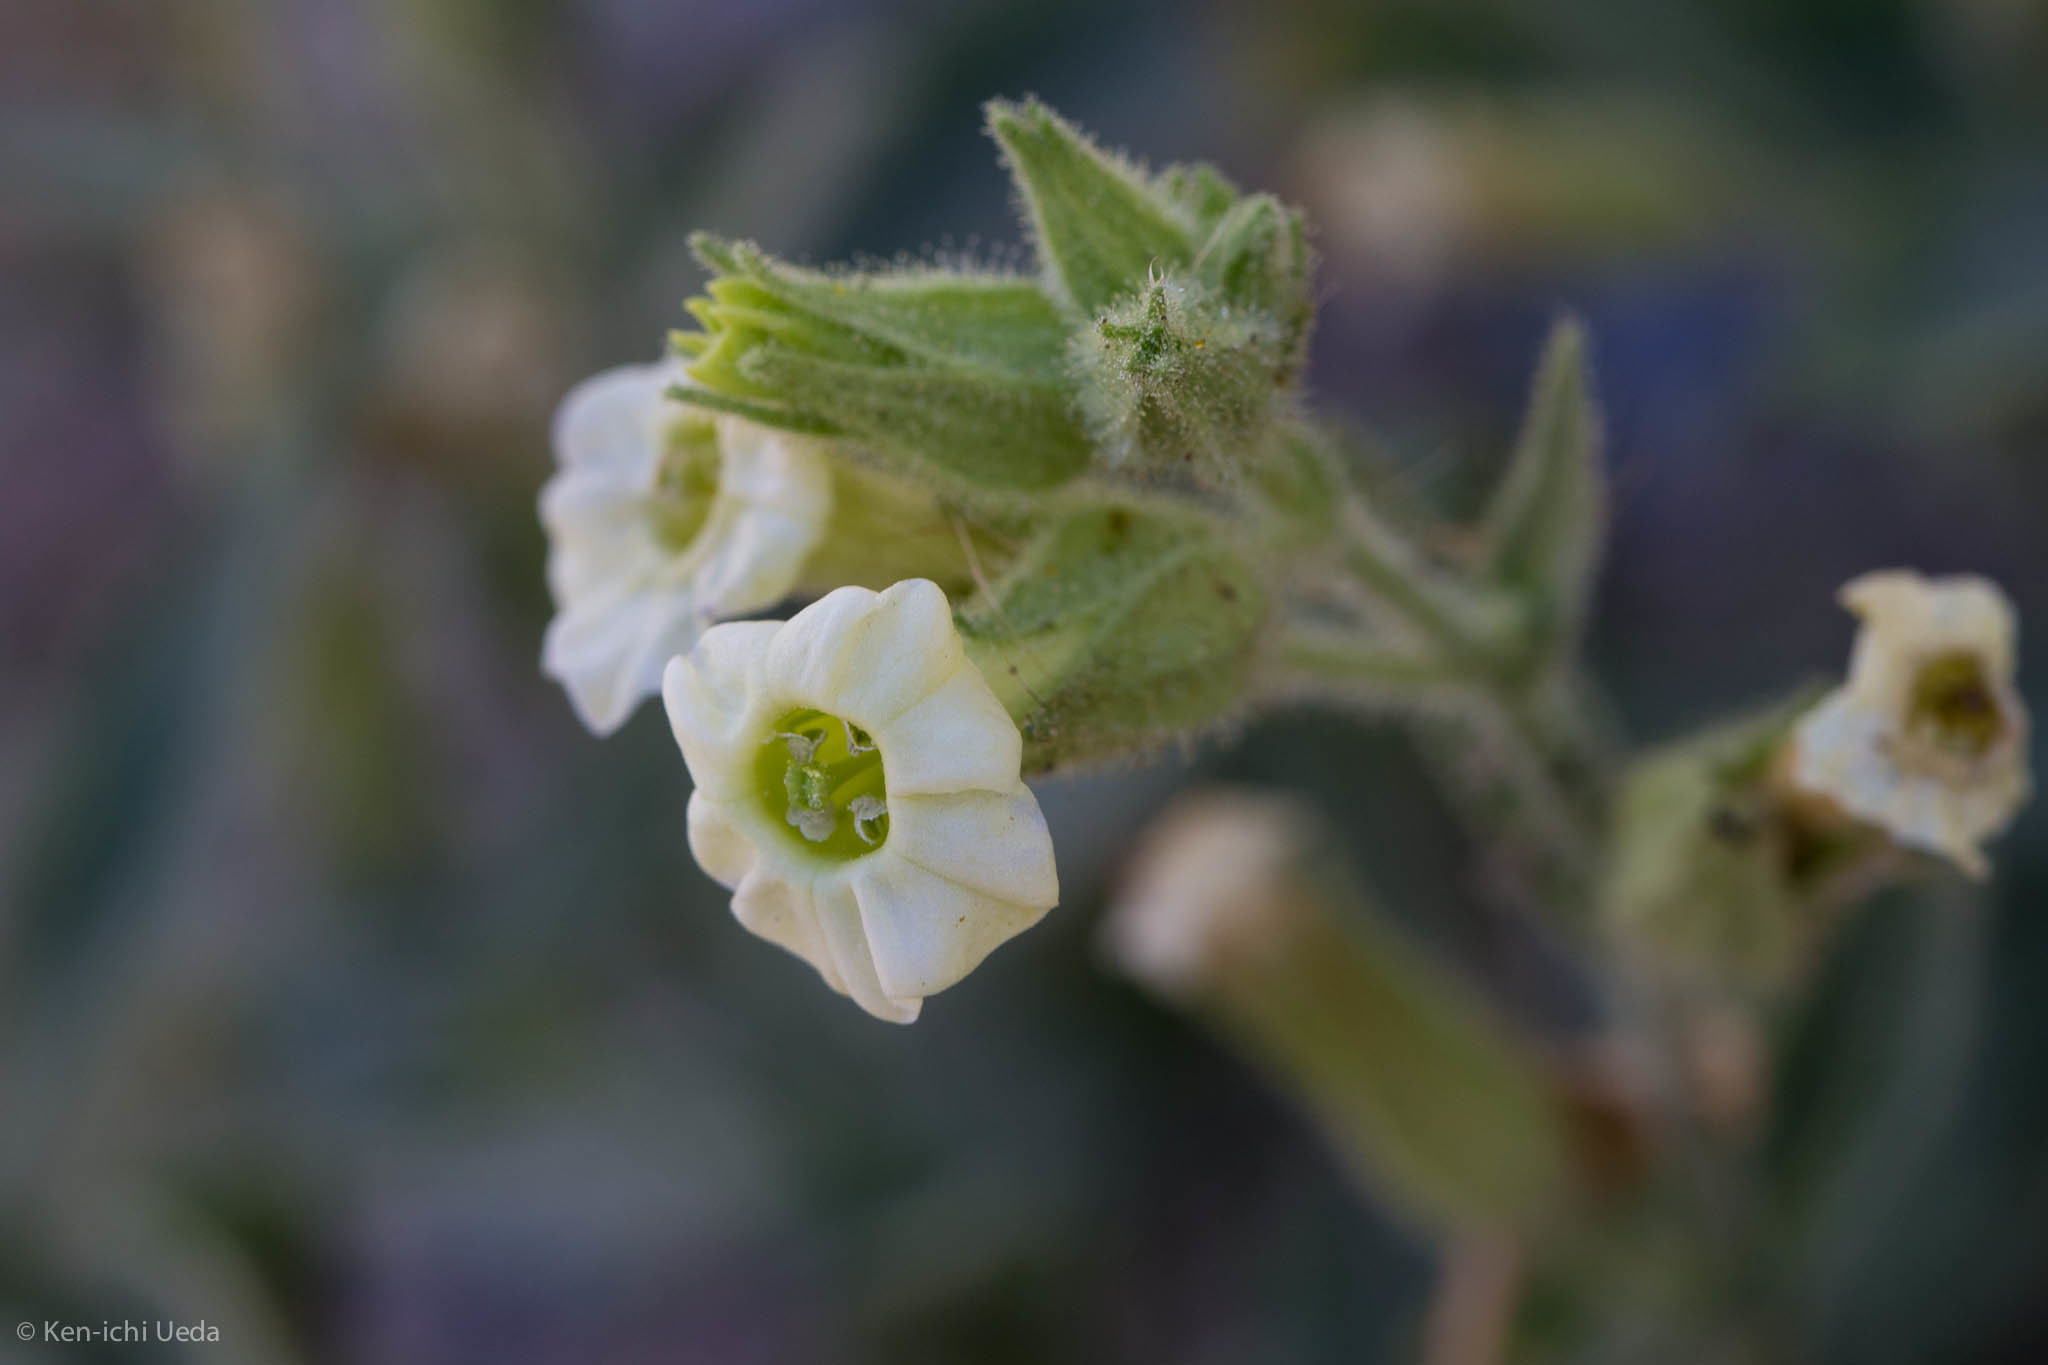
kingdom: Plantae
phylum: Tracheophyta
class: Magnoliopsida
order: Solanales
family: Solanaceae
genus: Nicotiana
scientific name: Nicotiana obtusifolia
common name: Desert tobacco
